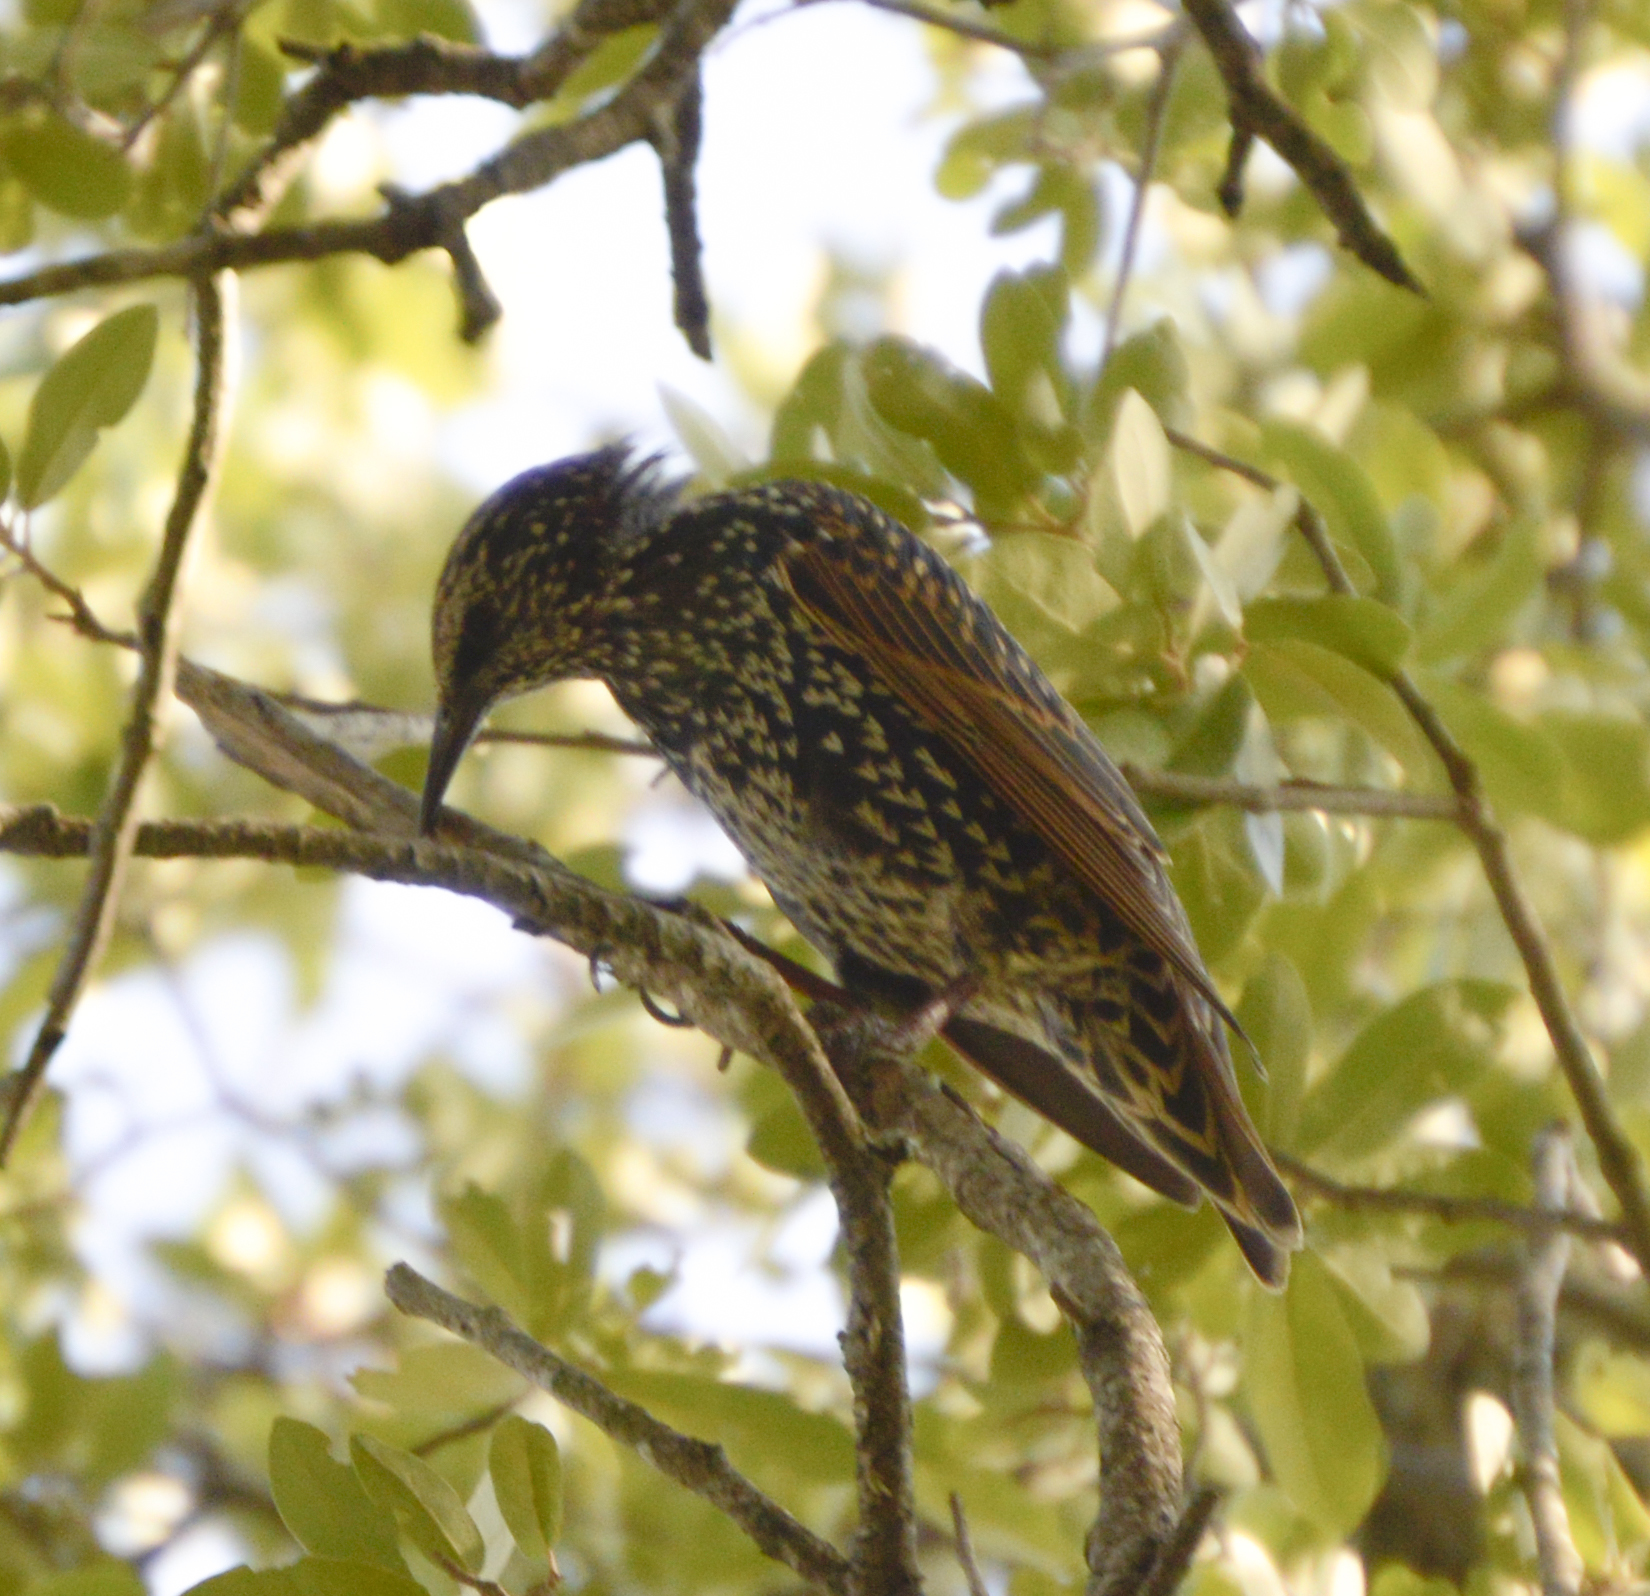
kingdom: Animalia
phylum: Chordata
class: Aves
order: Passeriformes
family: Sturnidae
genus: Sturnus
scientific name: Sturnus vulgaris
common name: Common starling
